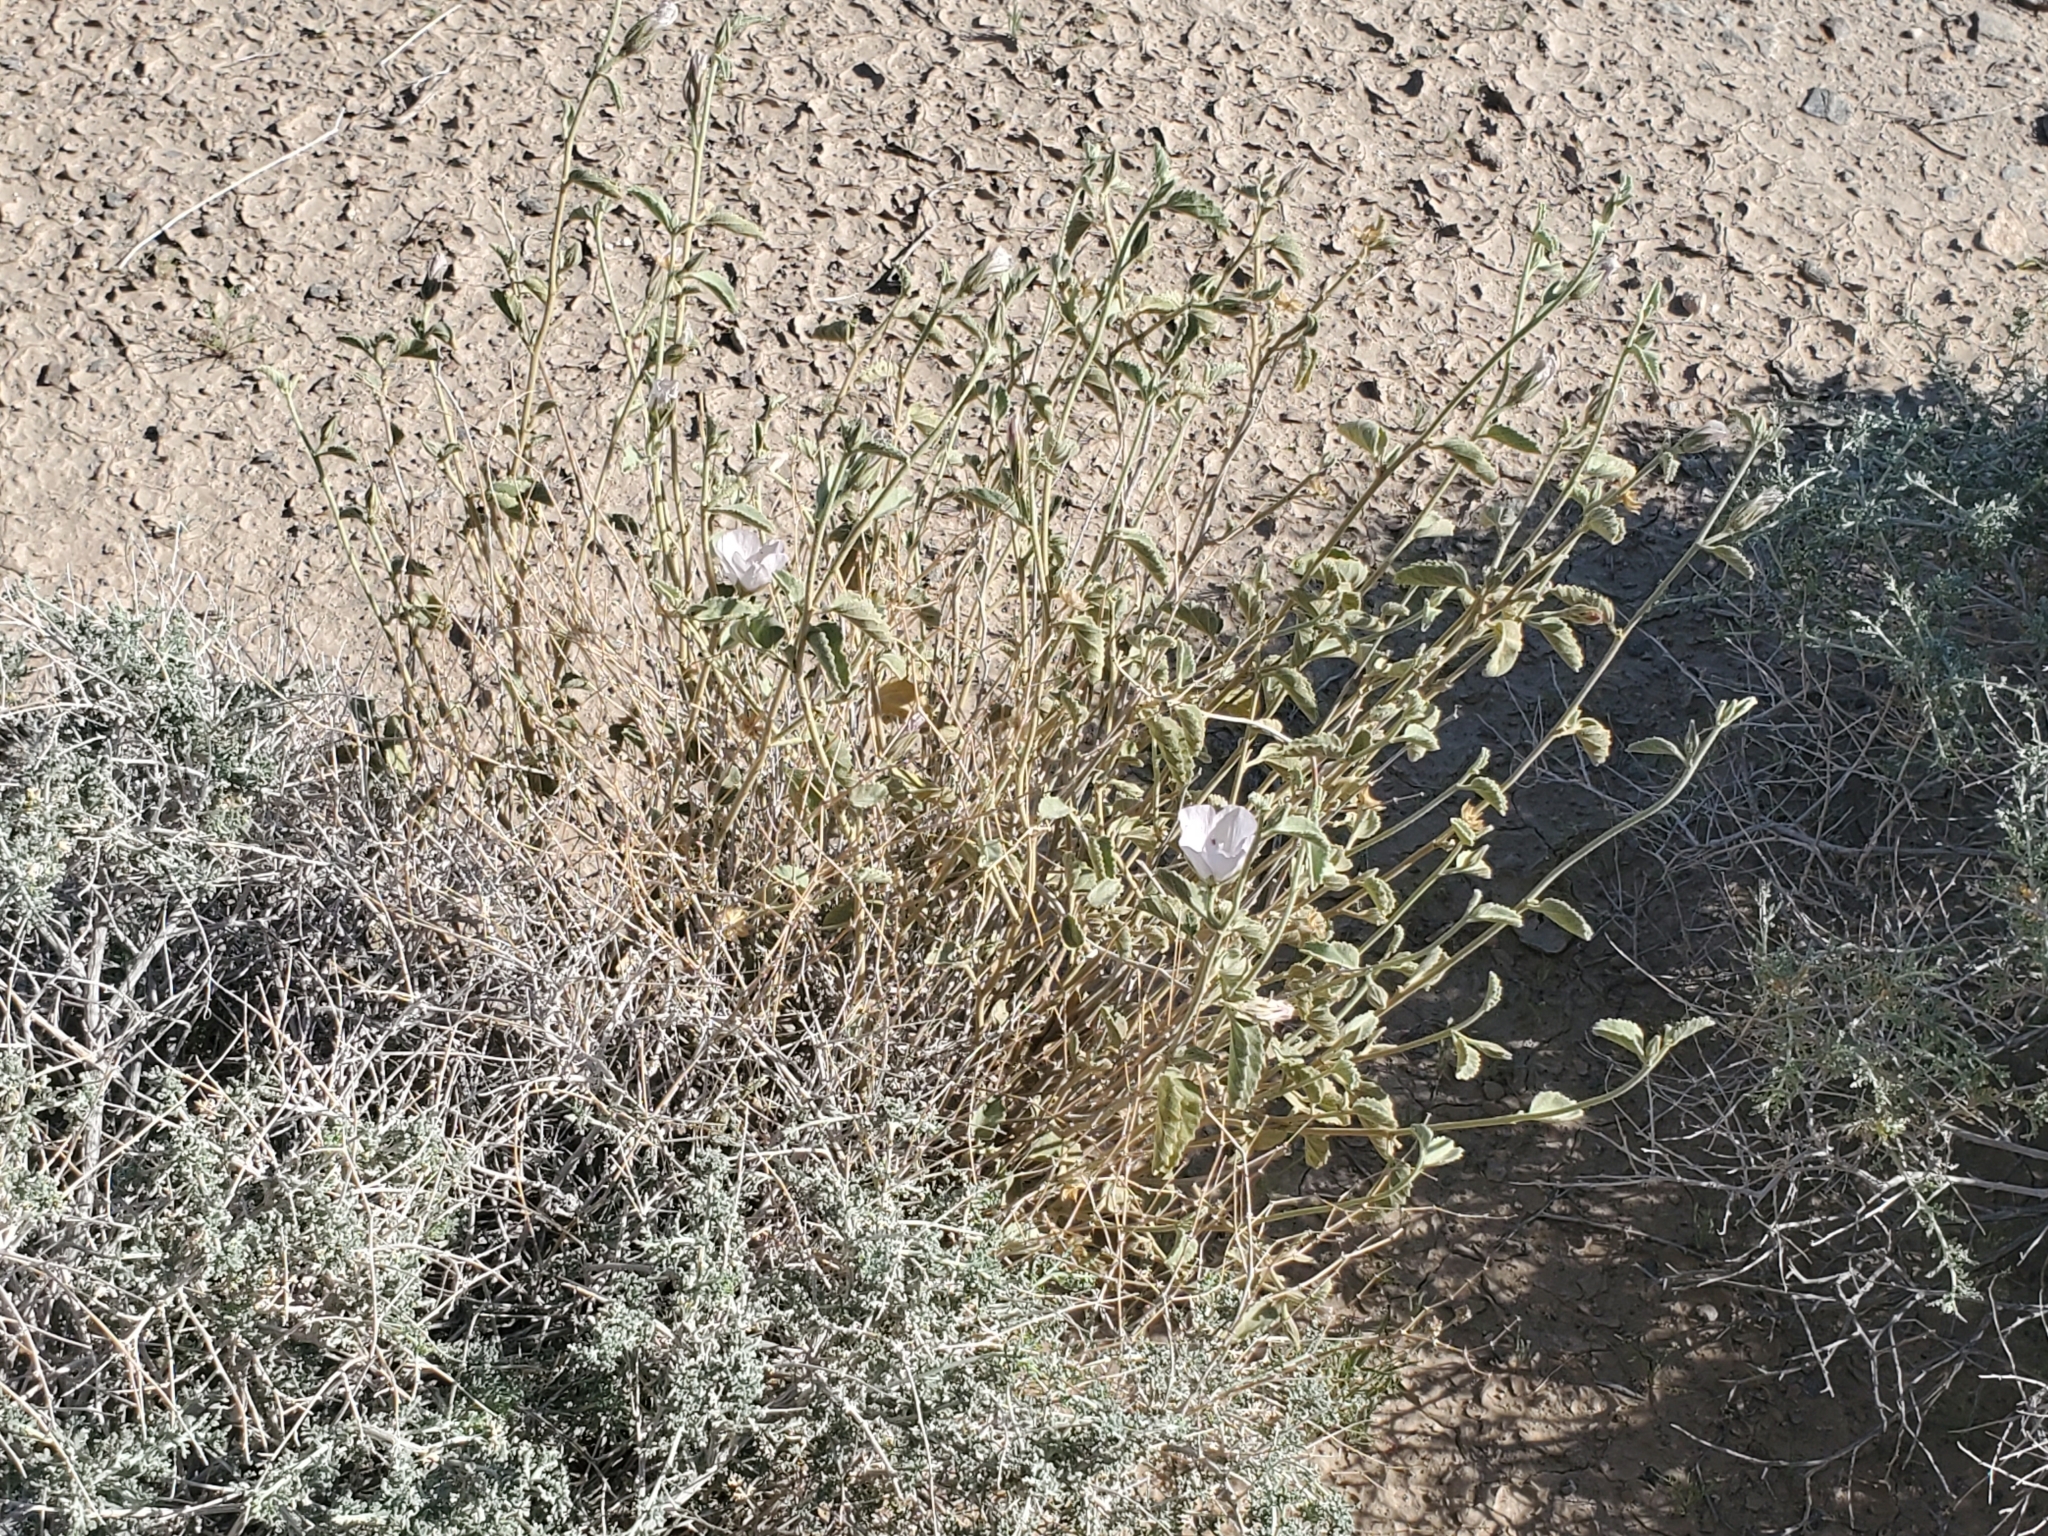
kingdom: Plantae
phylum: Tracheophyta
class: Magnoliopsida
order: Malvales
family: Malvaceae
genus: Hibiscus
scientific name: Hibiscus denudatus
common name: Paleface
